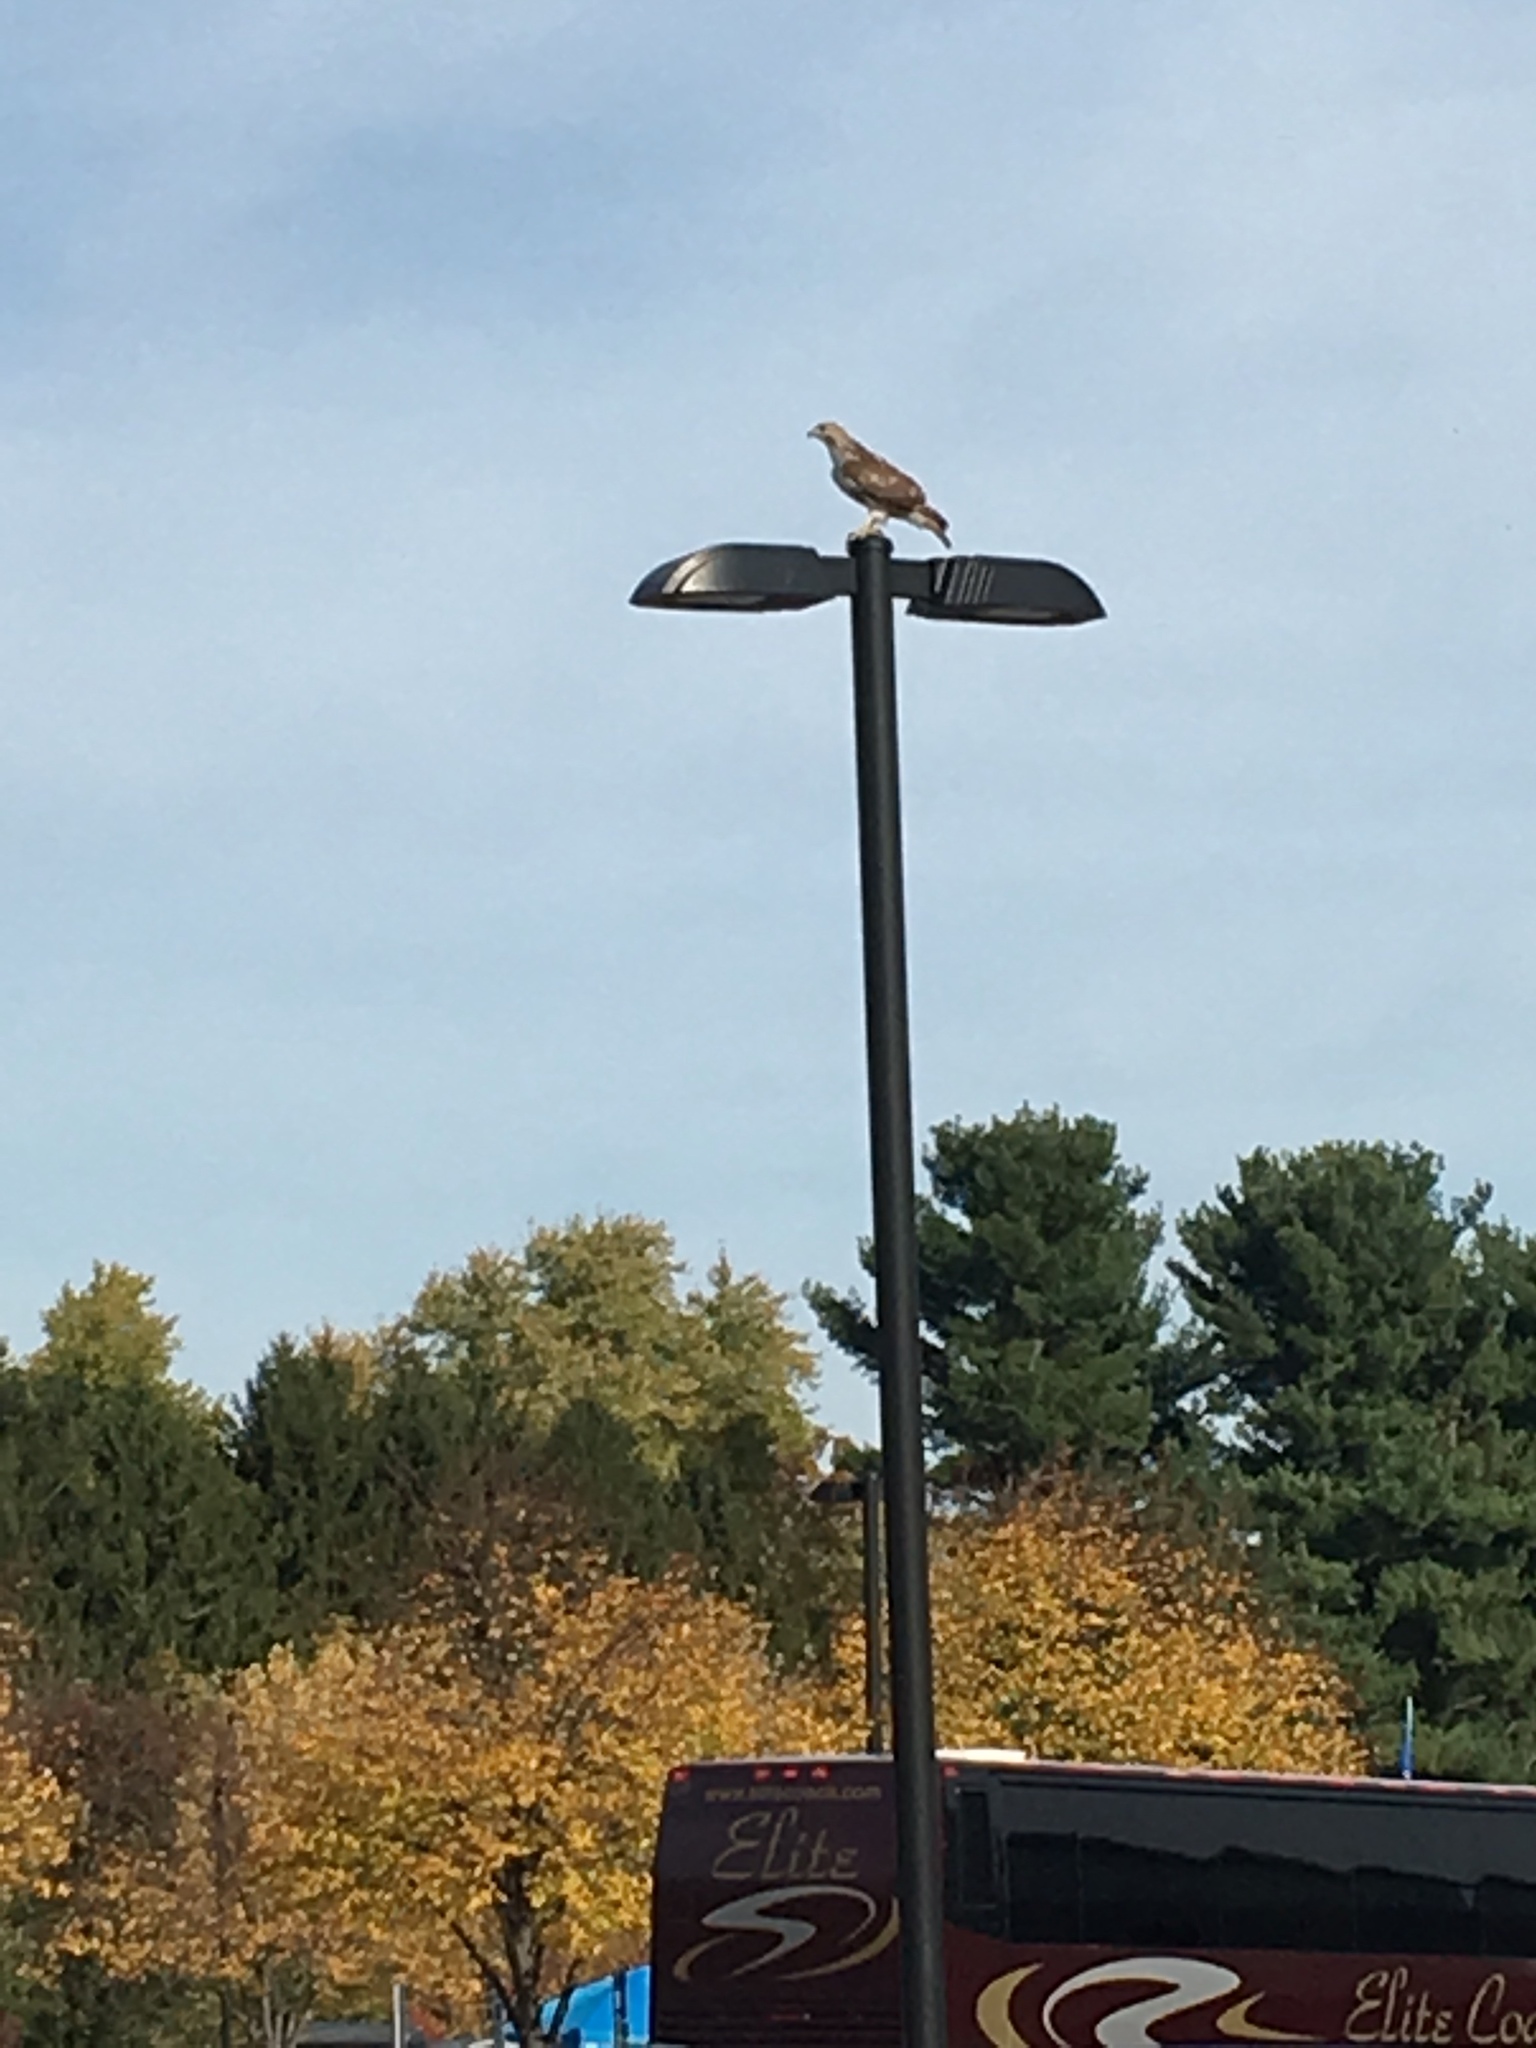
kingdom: Animalia
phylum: Chordata
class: Aves
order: Accipitriformes
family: Accipitridae
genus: Buteo
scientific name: Buteo jamaicensis
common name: Red-tailed hawk
